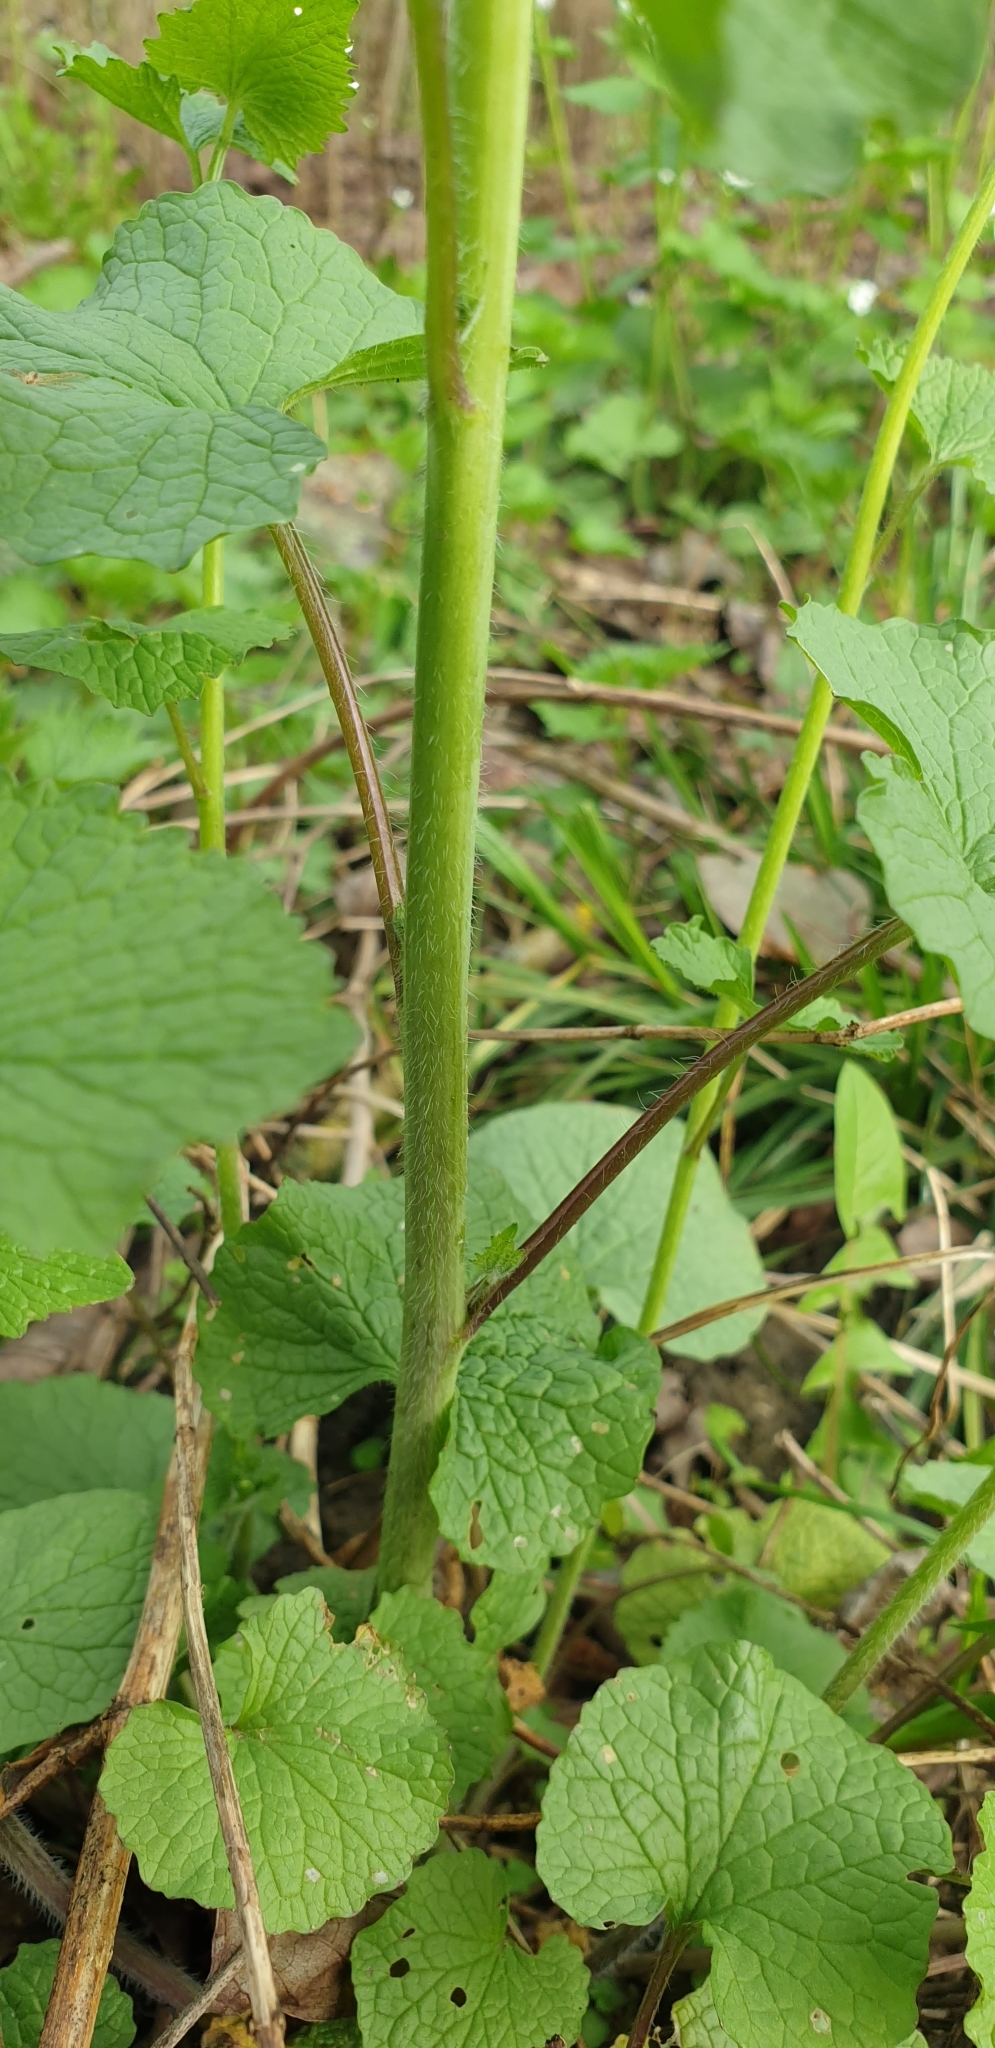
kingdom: Plantae
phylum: Tracheophyta
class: Magnoliopsida
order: Brassicales
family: Brassicaceae
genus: Alliaria
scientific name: Alliaria petiolata
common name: Garlic mustard
